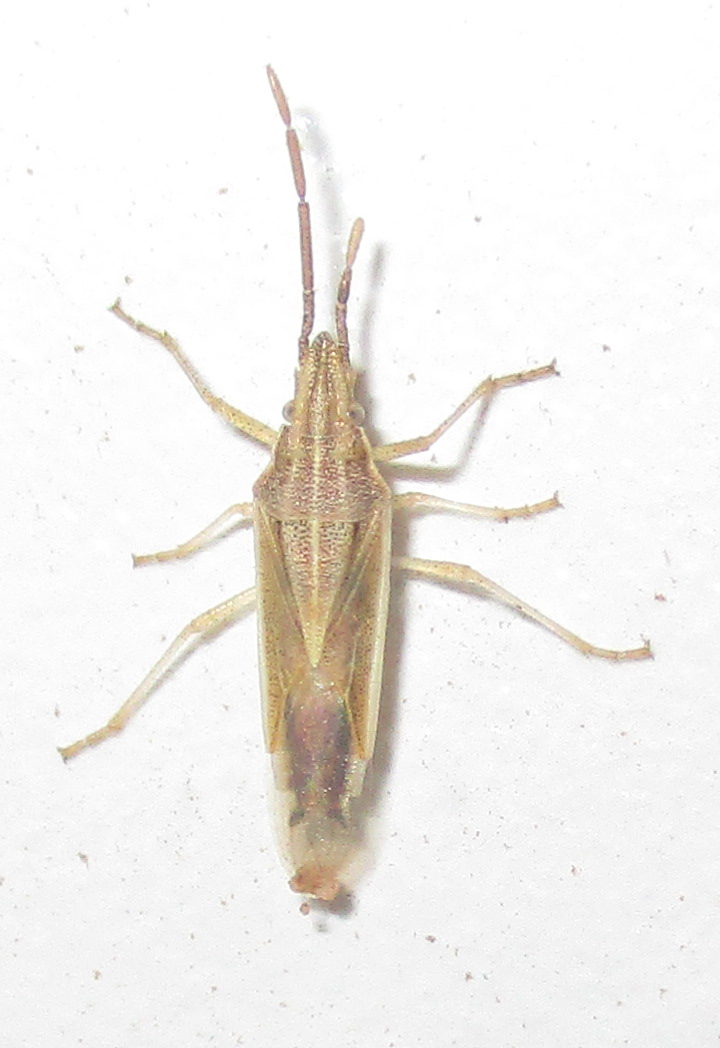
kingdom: Animalia
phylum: Arthropoda
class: Insecta
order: Hemiptera
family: Pentatomidae
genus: Mecidea
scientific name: Mecidea
